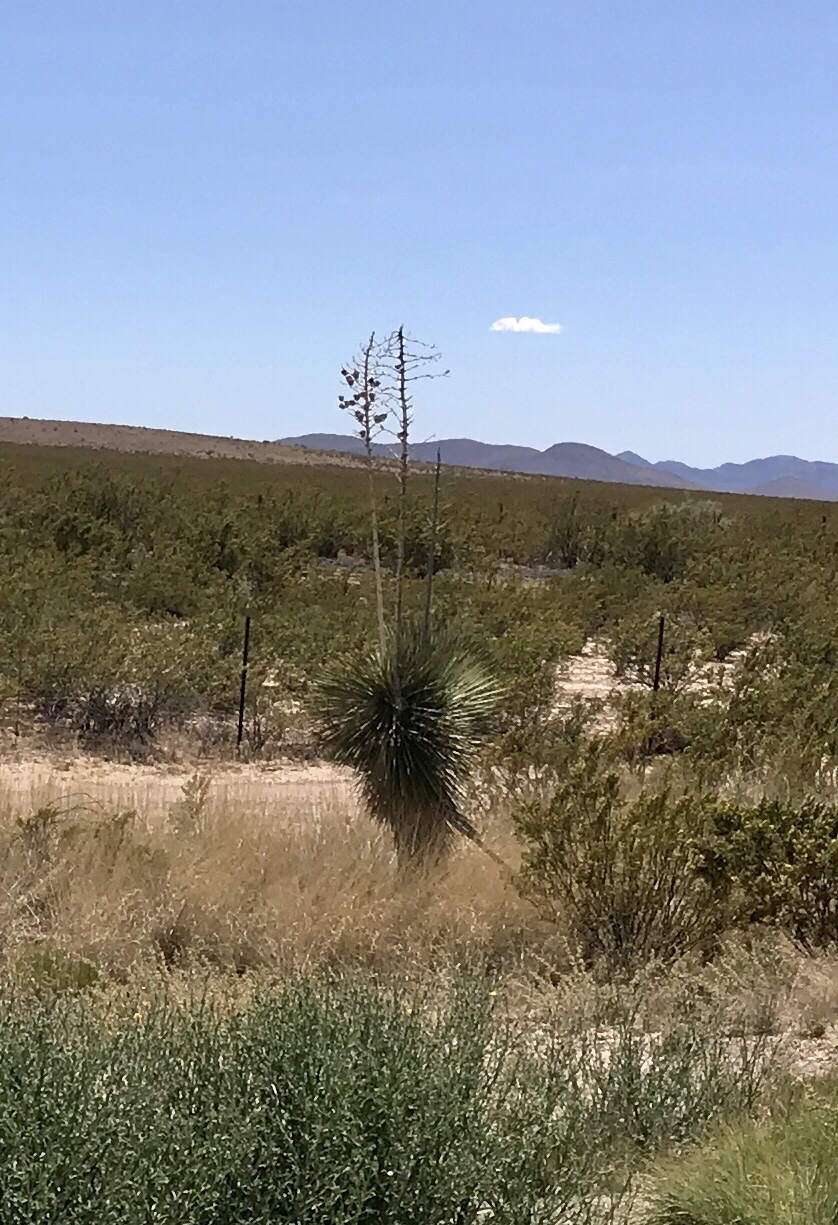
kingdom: Plantae
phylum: Tracheophyta
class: Liliopsida
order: Asparagales
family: Asparagaceae
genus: Yucca
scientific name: Yucca elata
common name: Palmella
